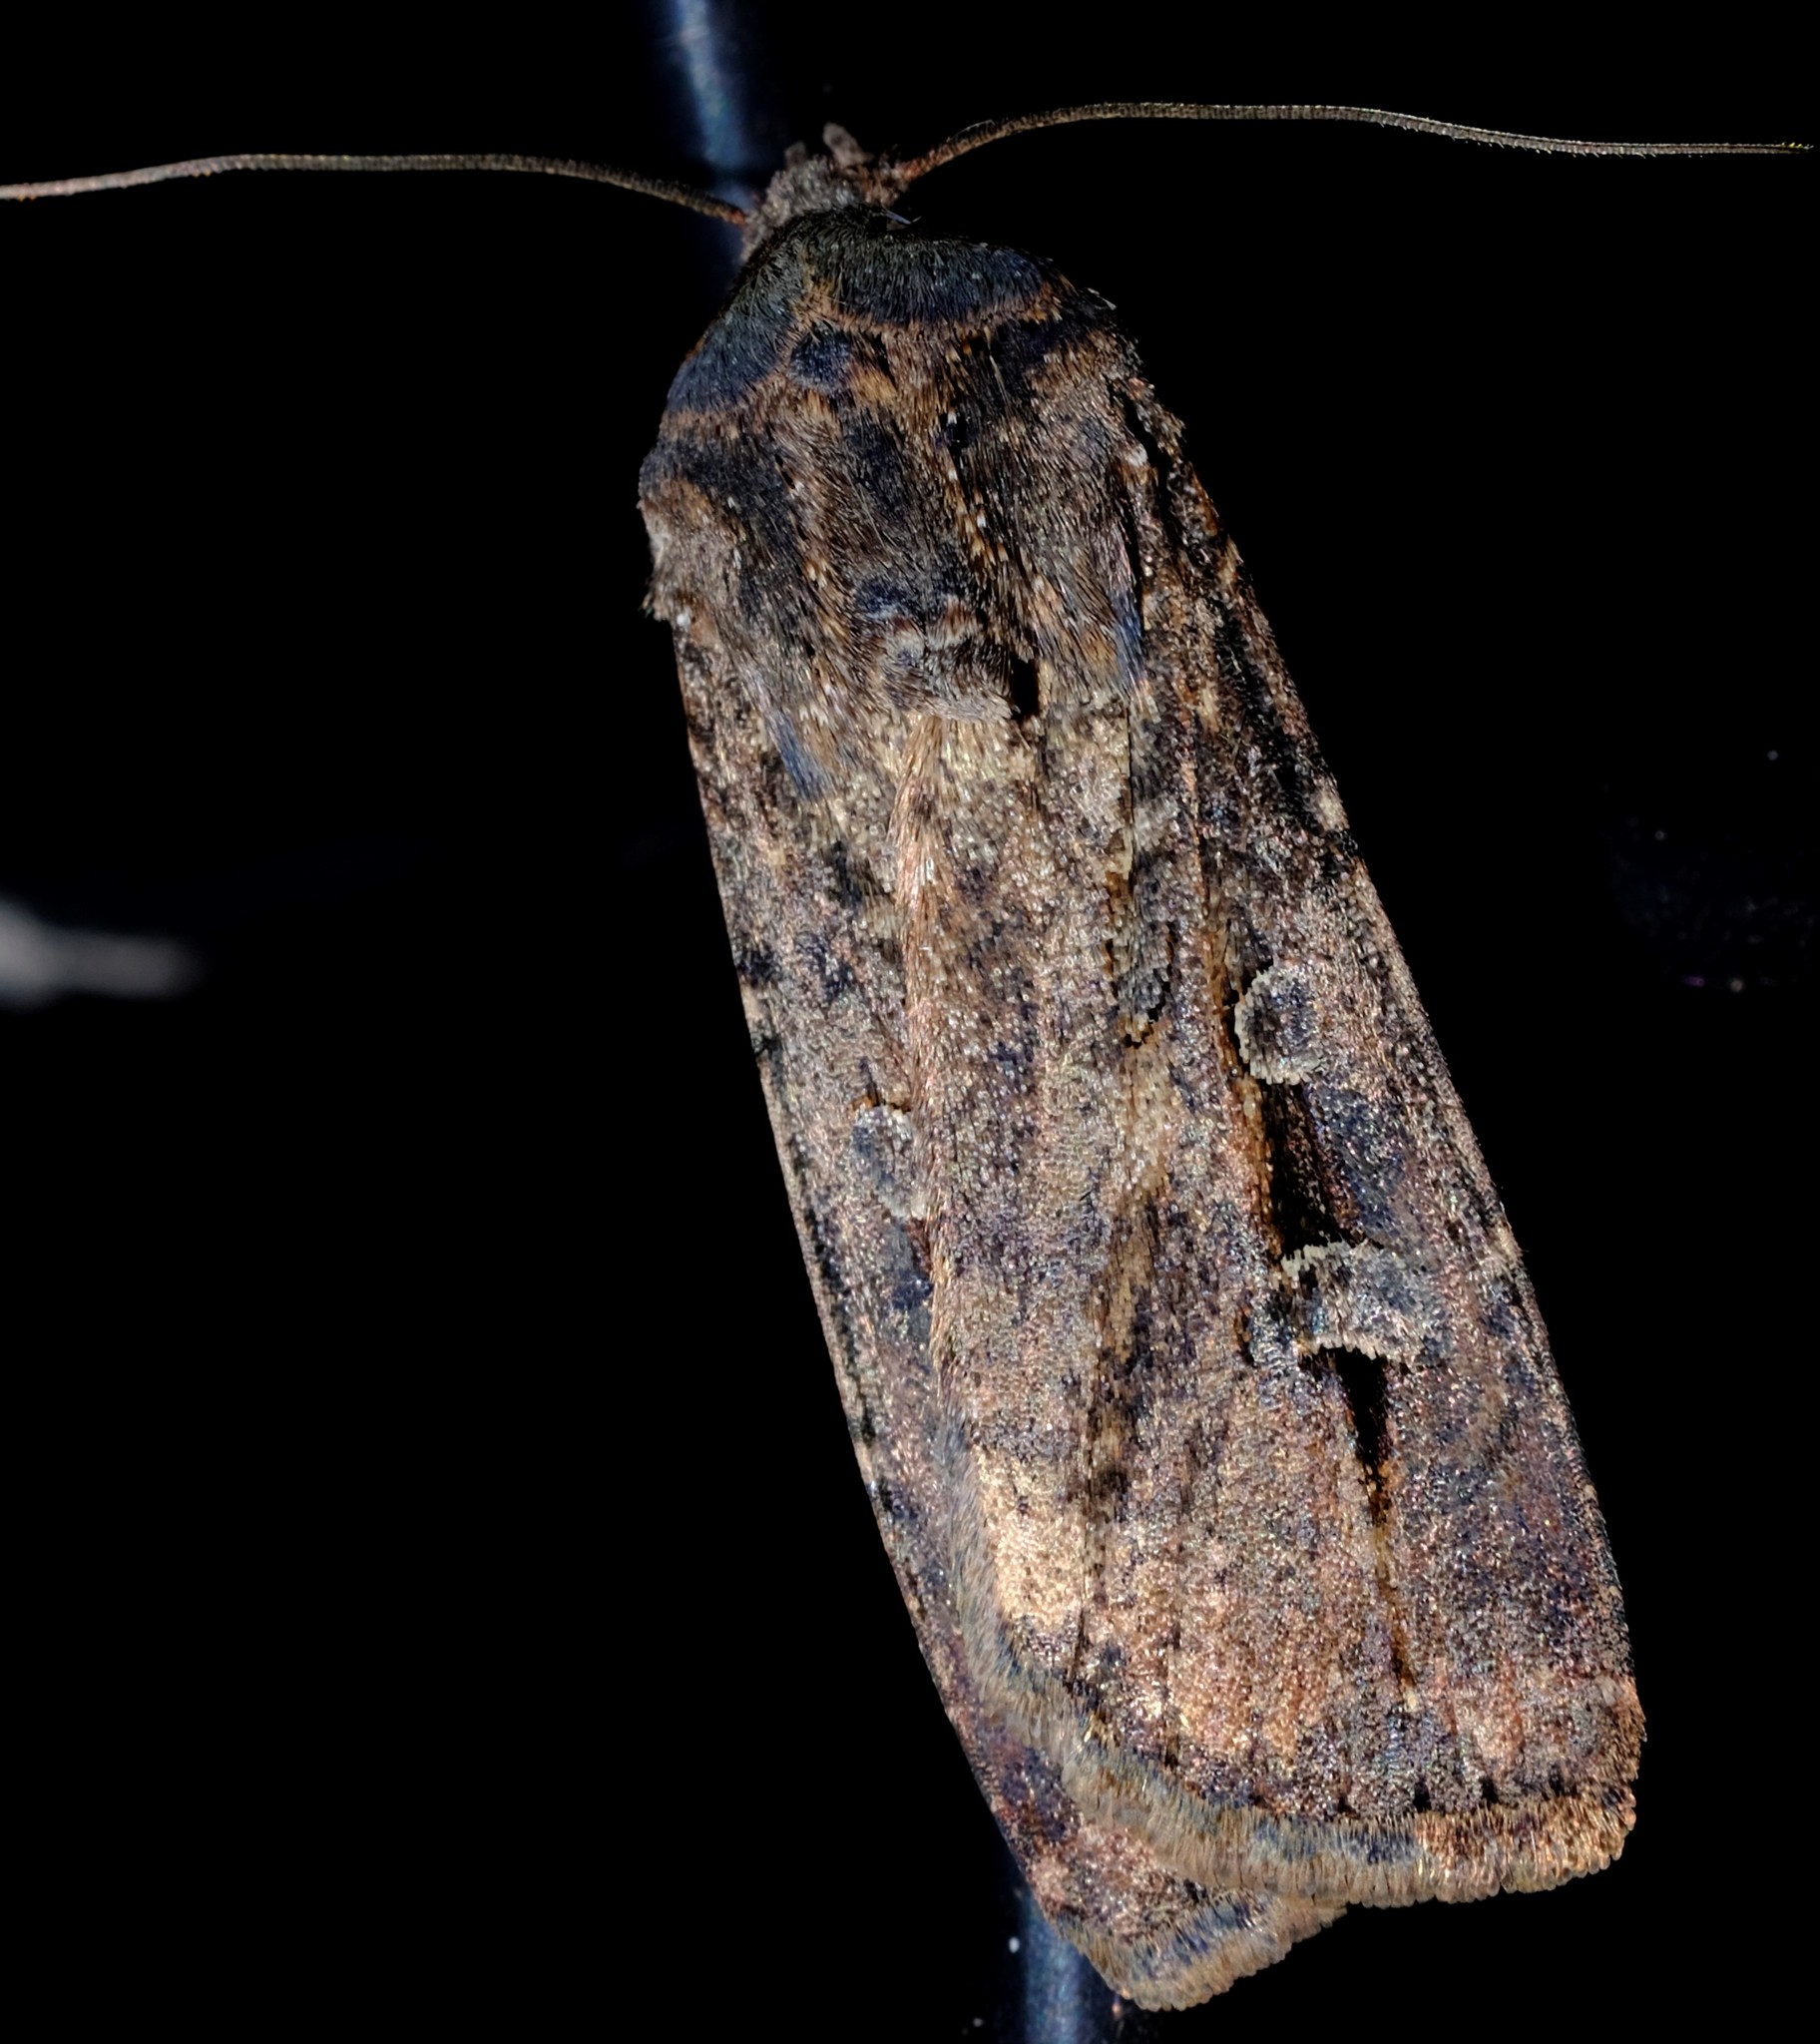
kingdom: Animalia
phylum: Arthropoda
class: Insecta
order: Lepidoptera
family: Noctuidae
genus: Agrotis
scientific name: Agrotis infusa
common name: Bogong moth
